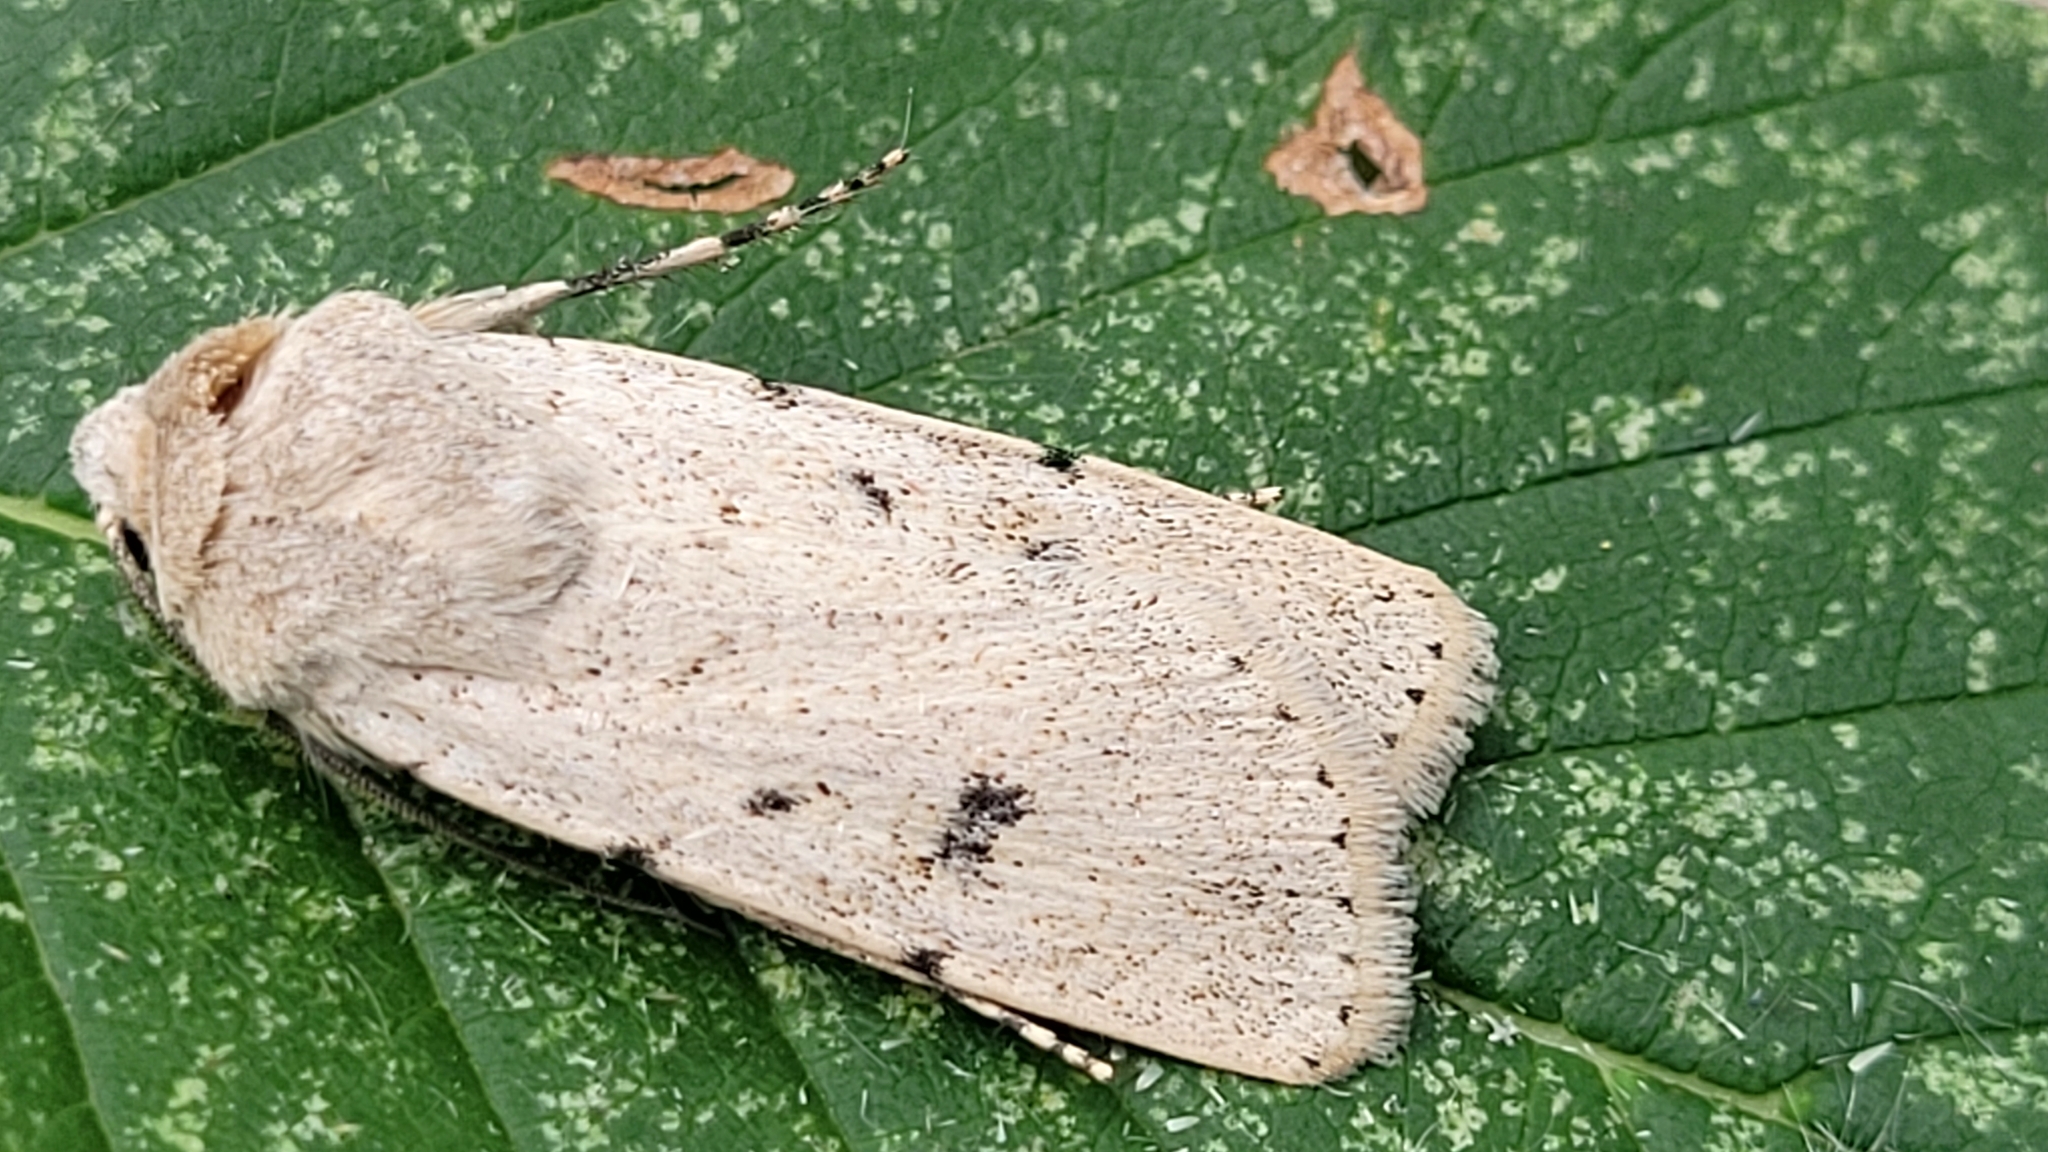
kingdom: Animalia
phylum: Arthropoda
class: Insecta
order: Lepidoptera
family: Noctuidae
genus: Euxoa
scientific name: Euxoa tronella
